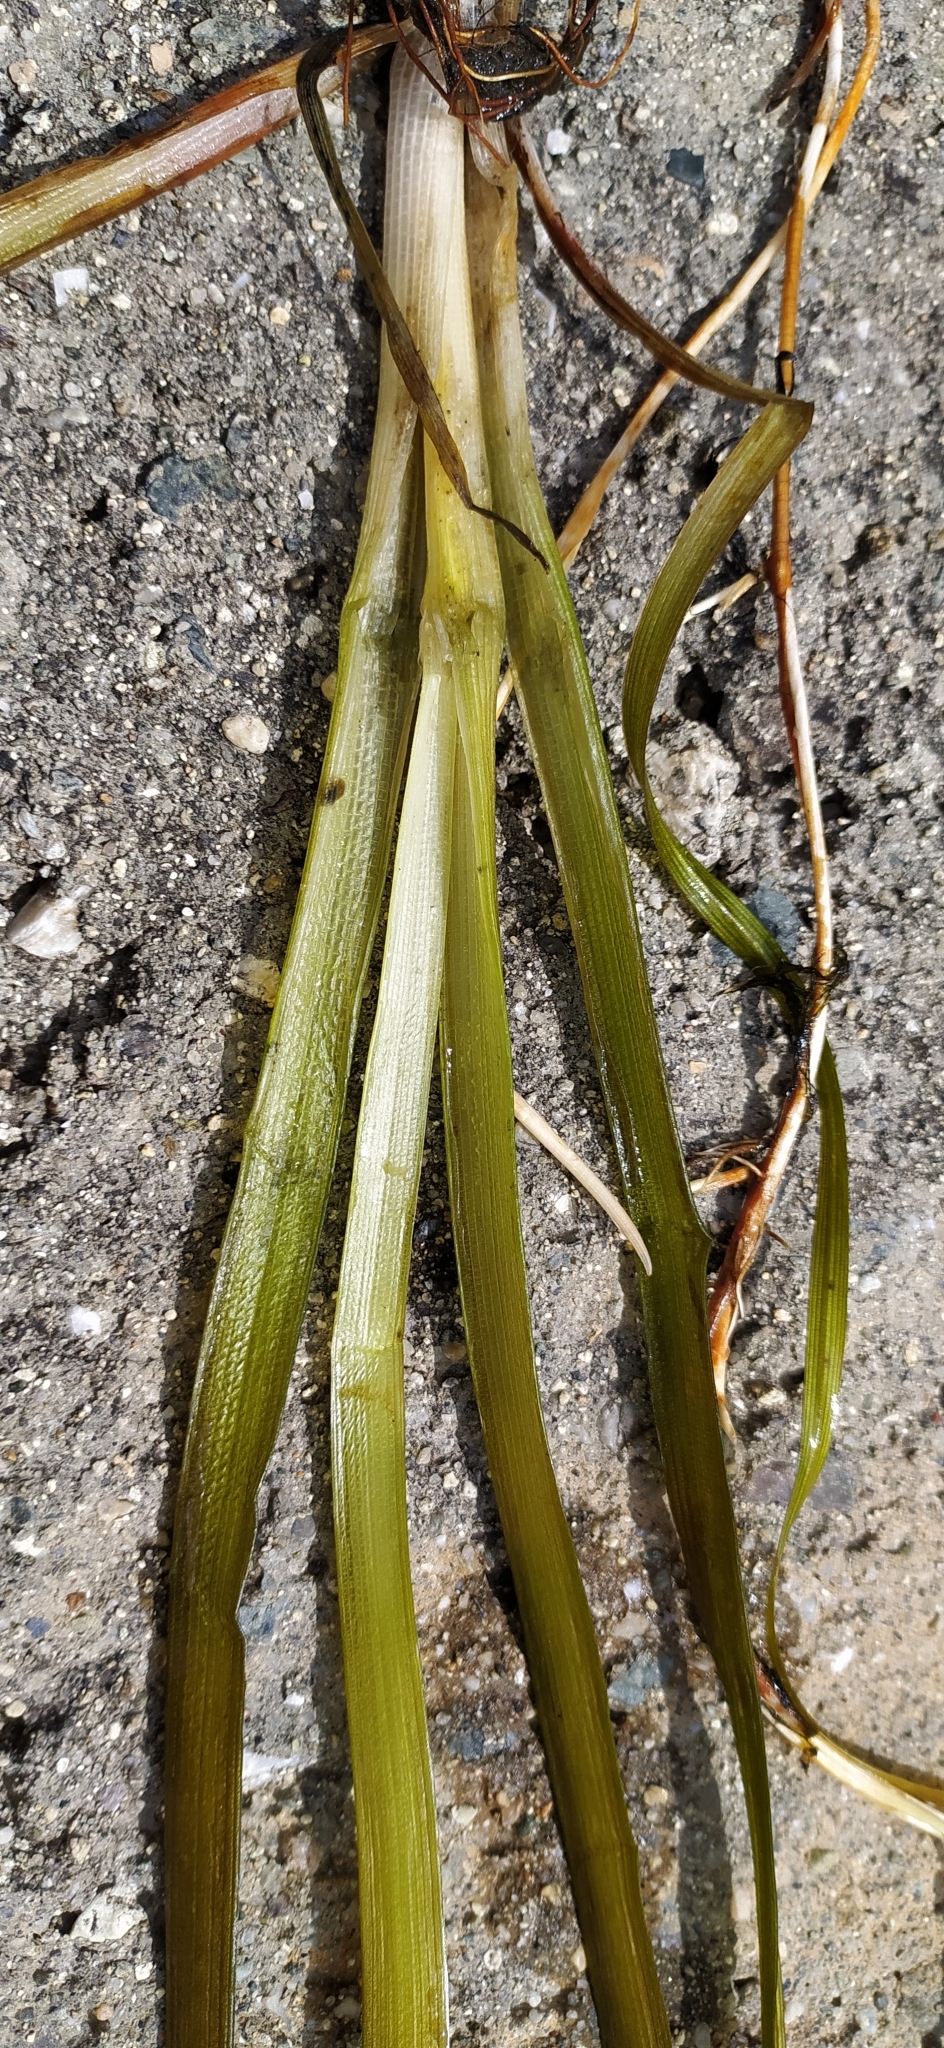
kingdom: Plantae
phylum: Tracheophyta
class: Liliopsida
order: Poales
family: Typhaceae
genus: Sparganium
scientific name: Sparganium emersum
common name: Unbranched bur-reed
